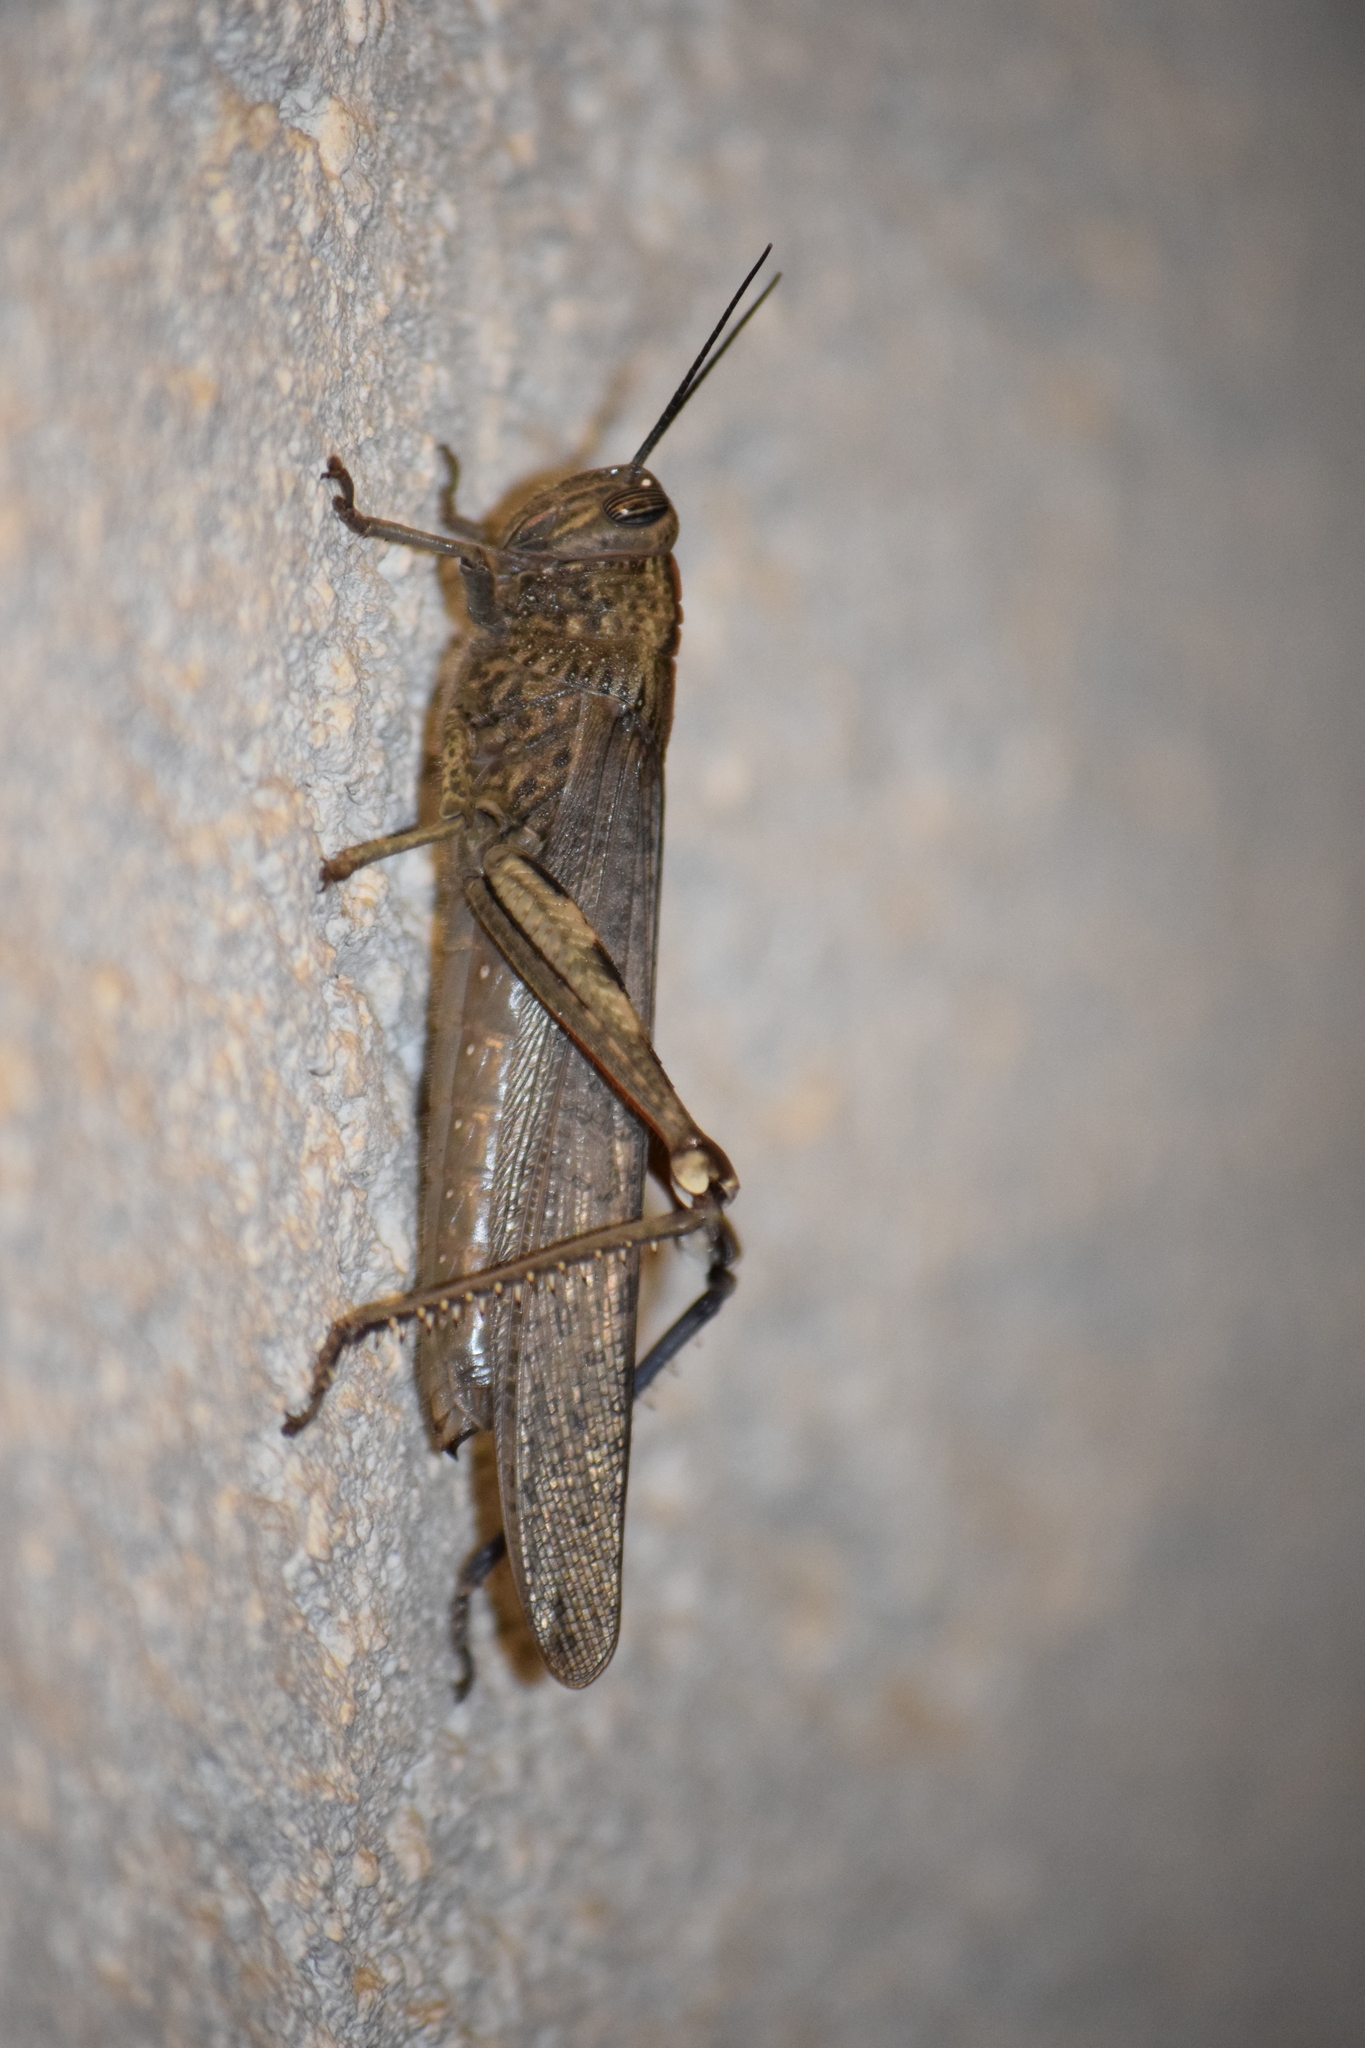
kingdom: Animalia
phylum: Arthropoda
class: Insecta
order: Orthoptera
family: Acrididae
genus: Anacridium
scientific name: Anacridium aegyptium
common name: Egyptian grasshopper
